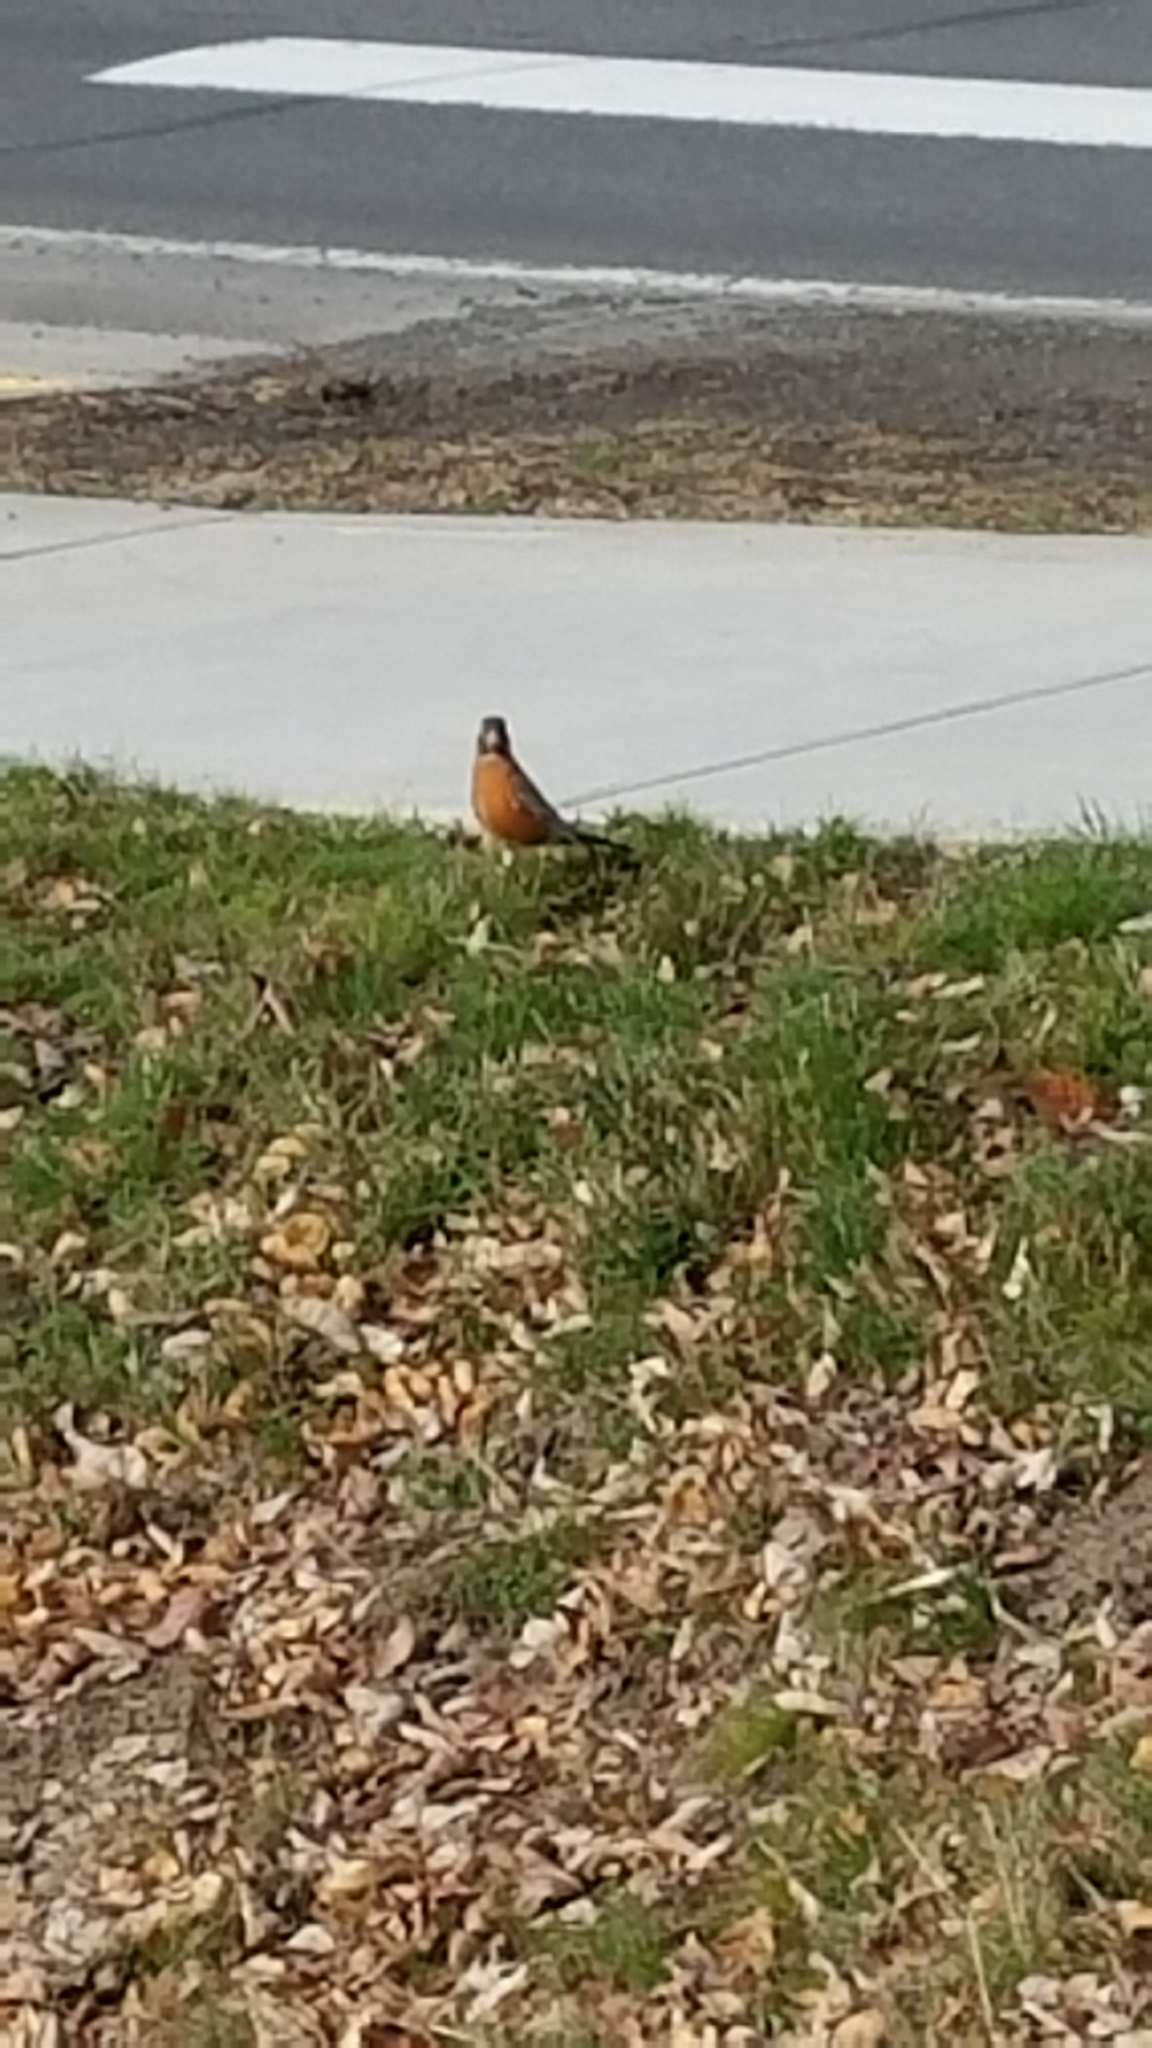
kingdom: Animalia
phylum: Chordata
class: Aves
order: Passeriformes
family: Turdidae
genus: Turdus
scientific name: Turdus migratorius
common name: American robin
